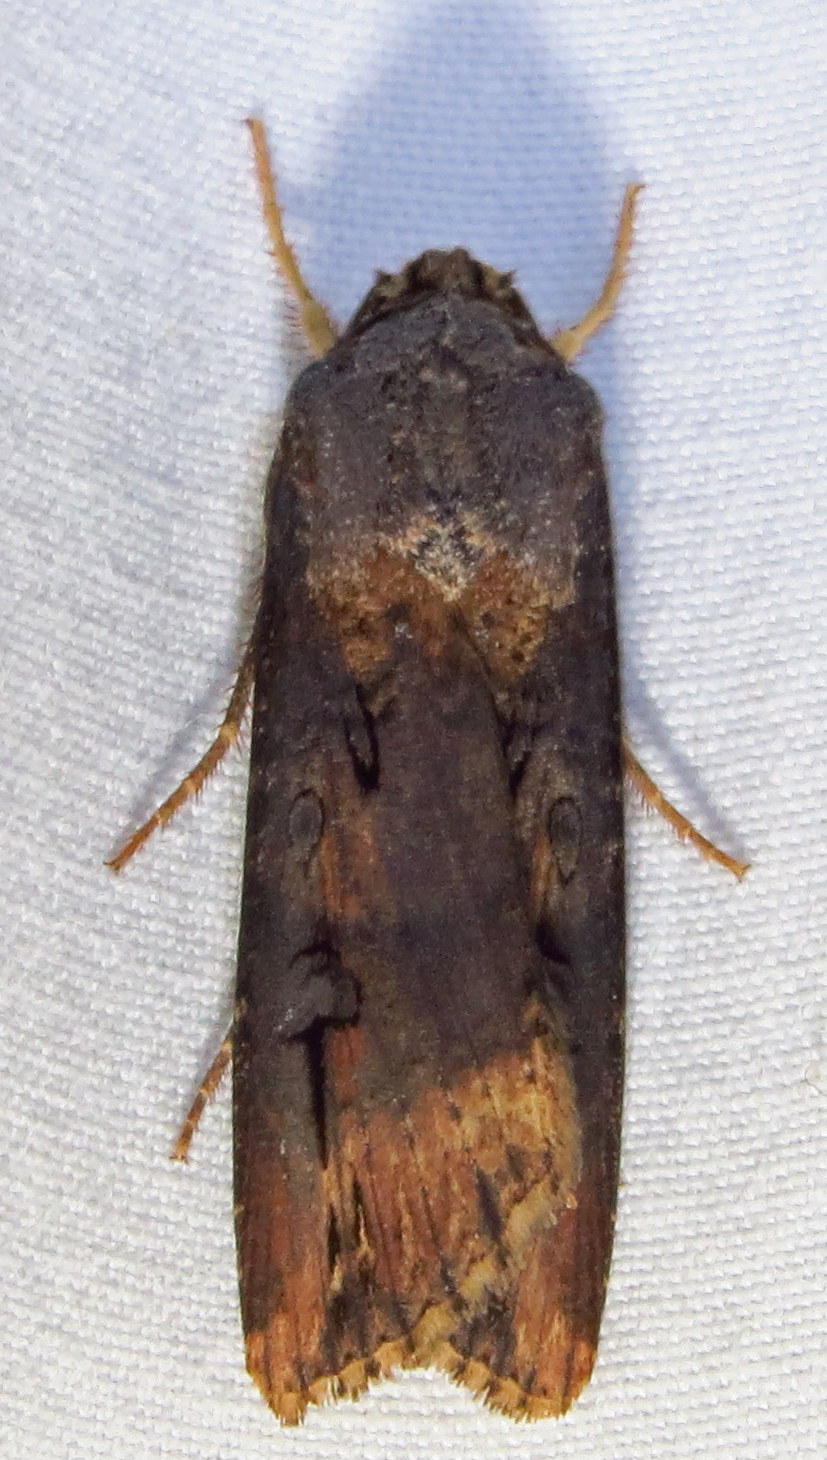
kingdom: Animalia
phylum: Arthropoda
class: Insecta
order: Lepidoptera
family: Noctuidae
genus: Agrotis
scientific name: Agrotis ipsilon
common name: Dark sword-grass
